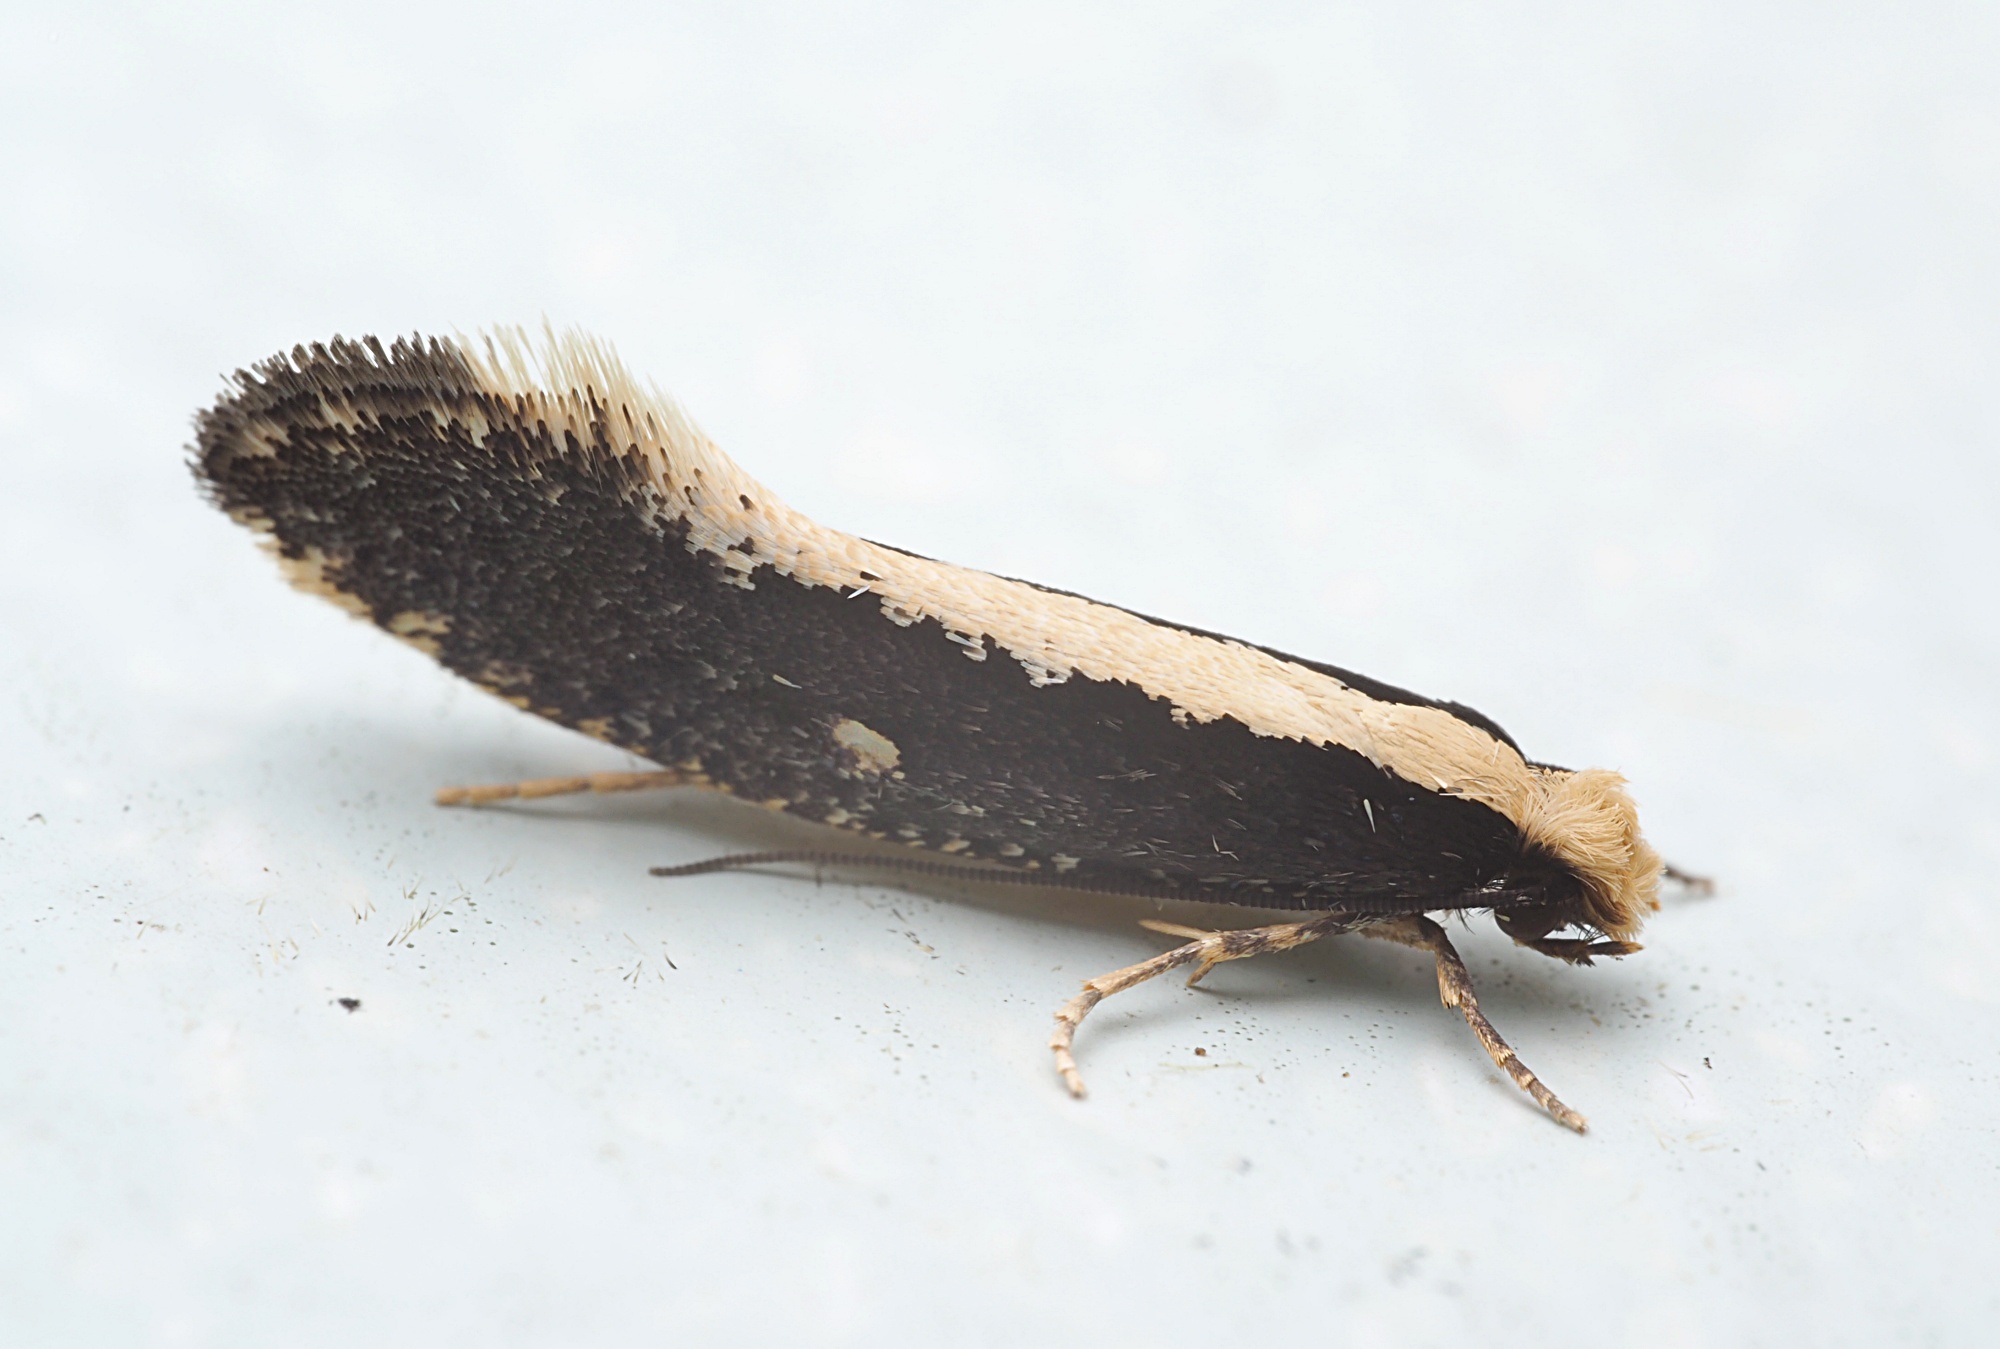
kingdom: Animalia
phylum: Arthropoda
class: Insecta
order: Lepidoptera
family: Tineidae
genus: Monopis
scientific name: Monopis ethelella
